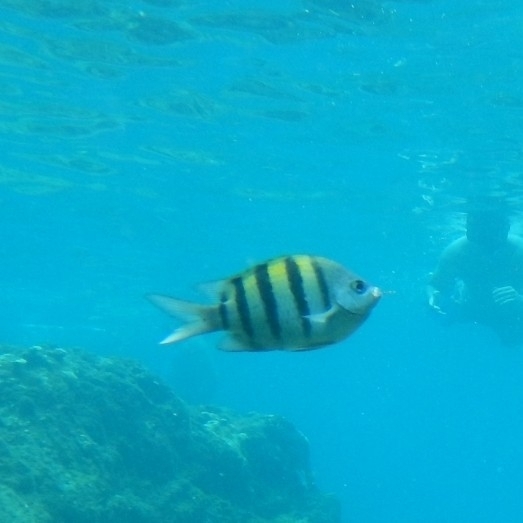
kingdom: Animalia
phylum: Chordata
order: Perciformes
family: Pomacentridae
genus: Abudefduf
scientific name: Abudefduf saxatilis
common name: Sergeant major
